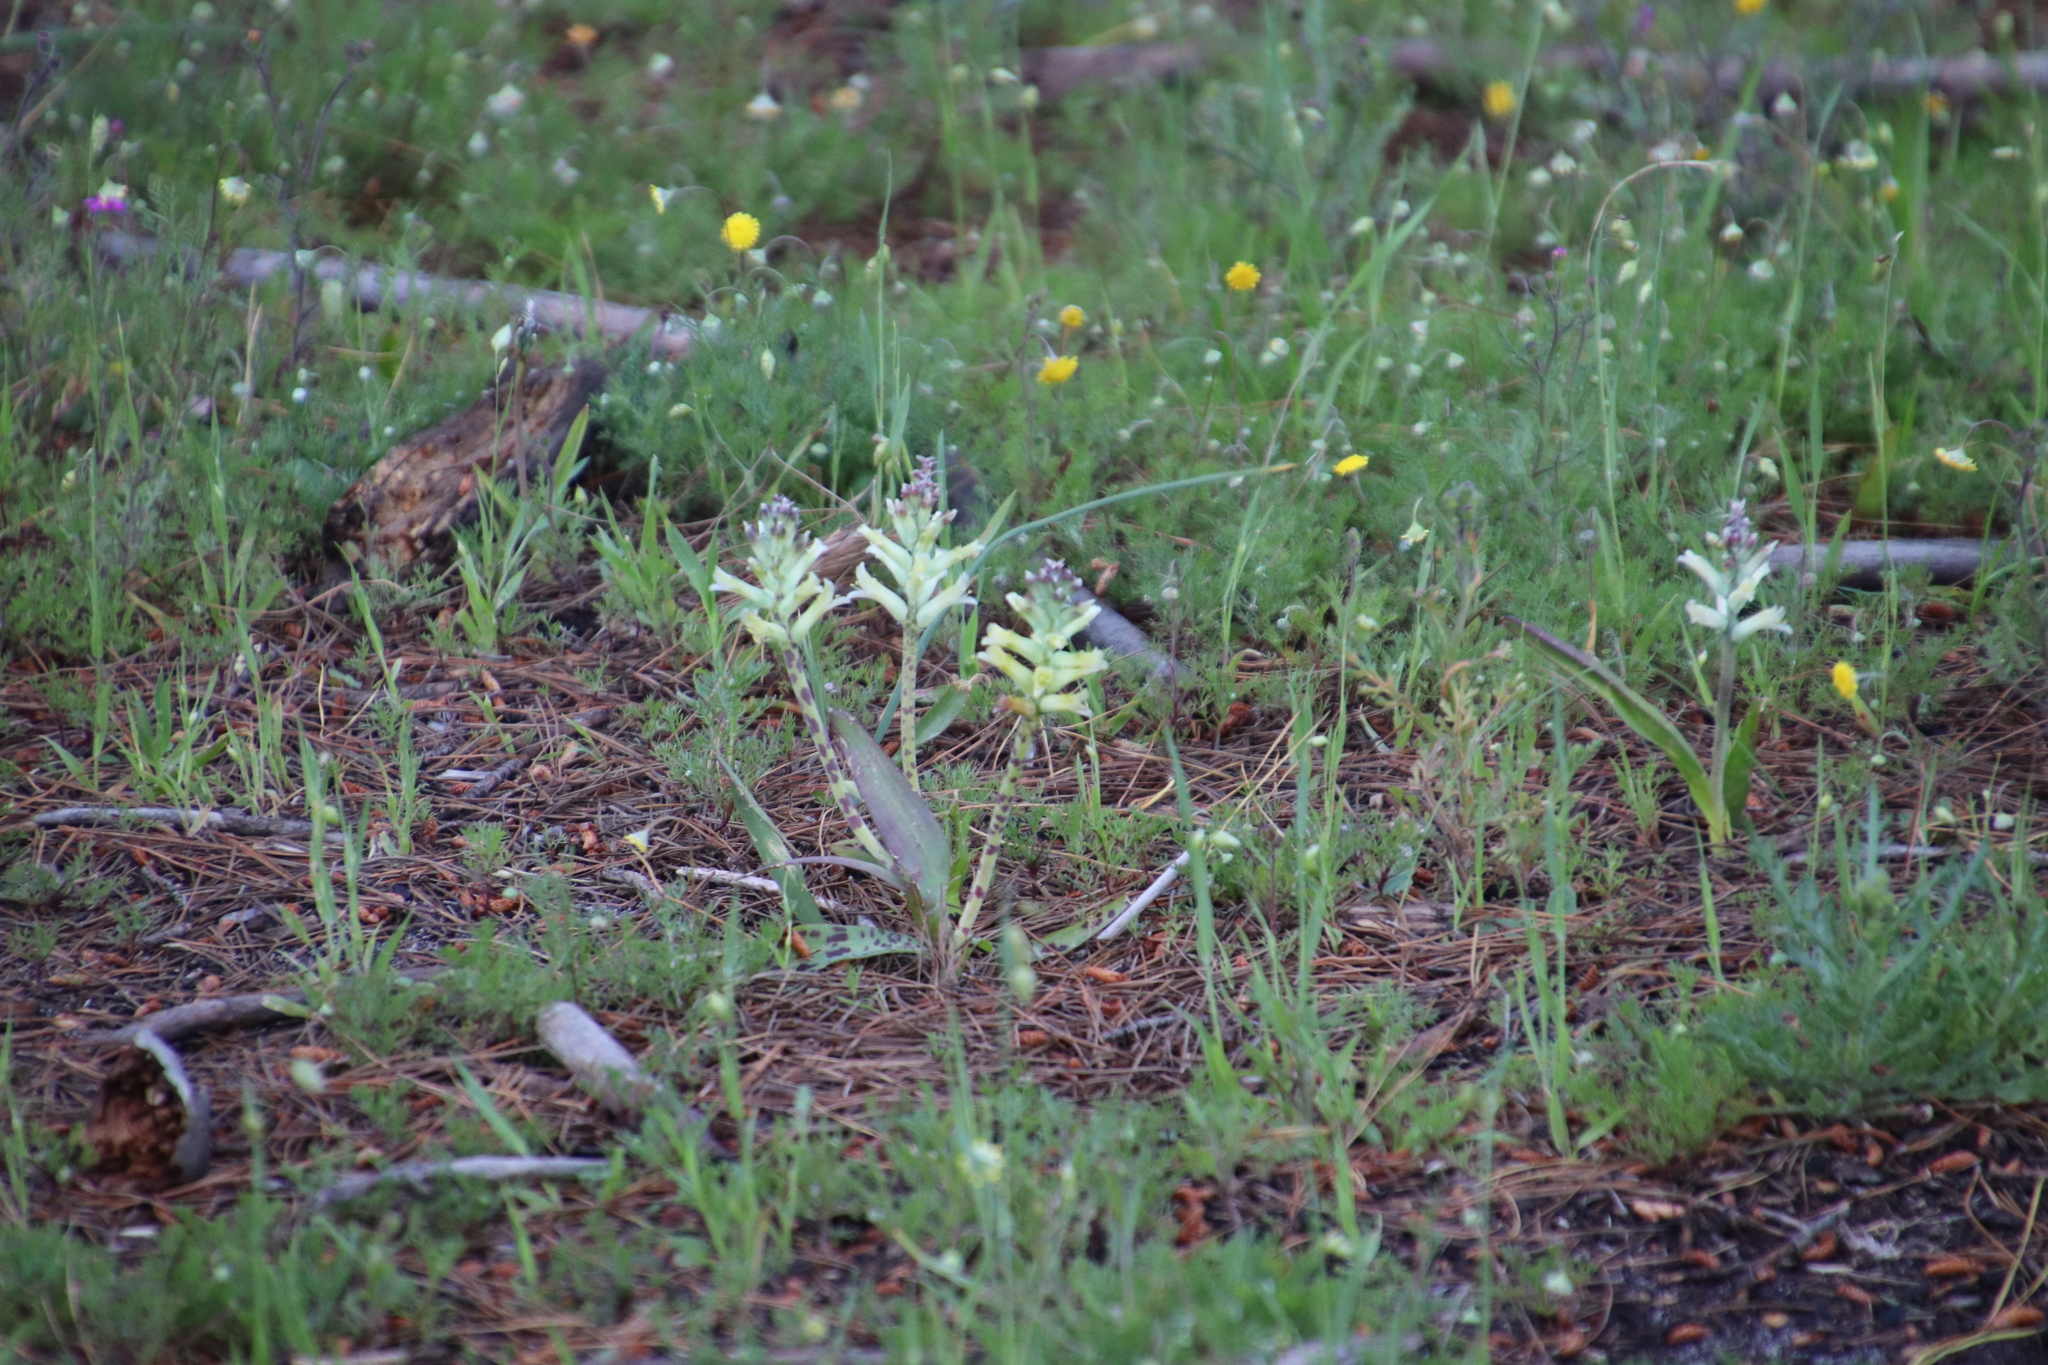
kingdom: Plantae
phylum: Tracheophyta
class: Liliopsida
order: Asparagales
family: Asparagaceae
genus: Lachenalia
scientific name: Lachenalia orchioides
